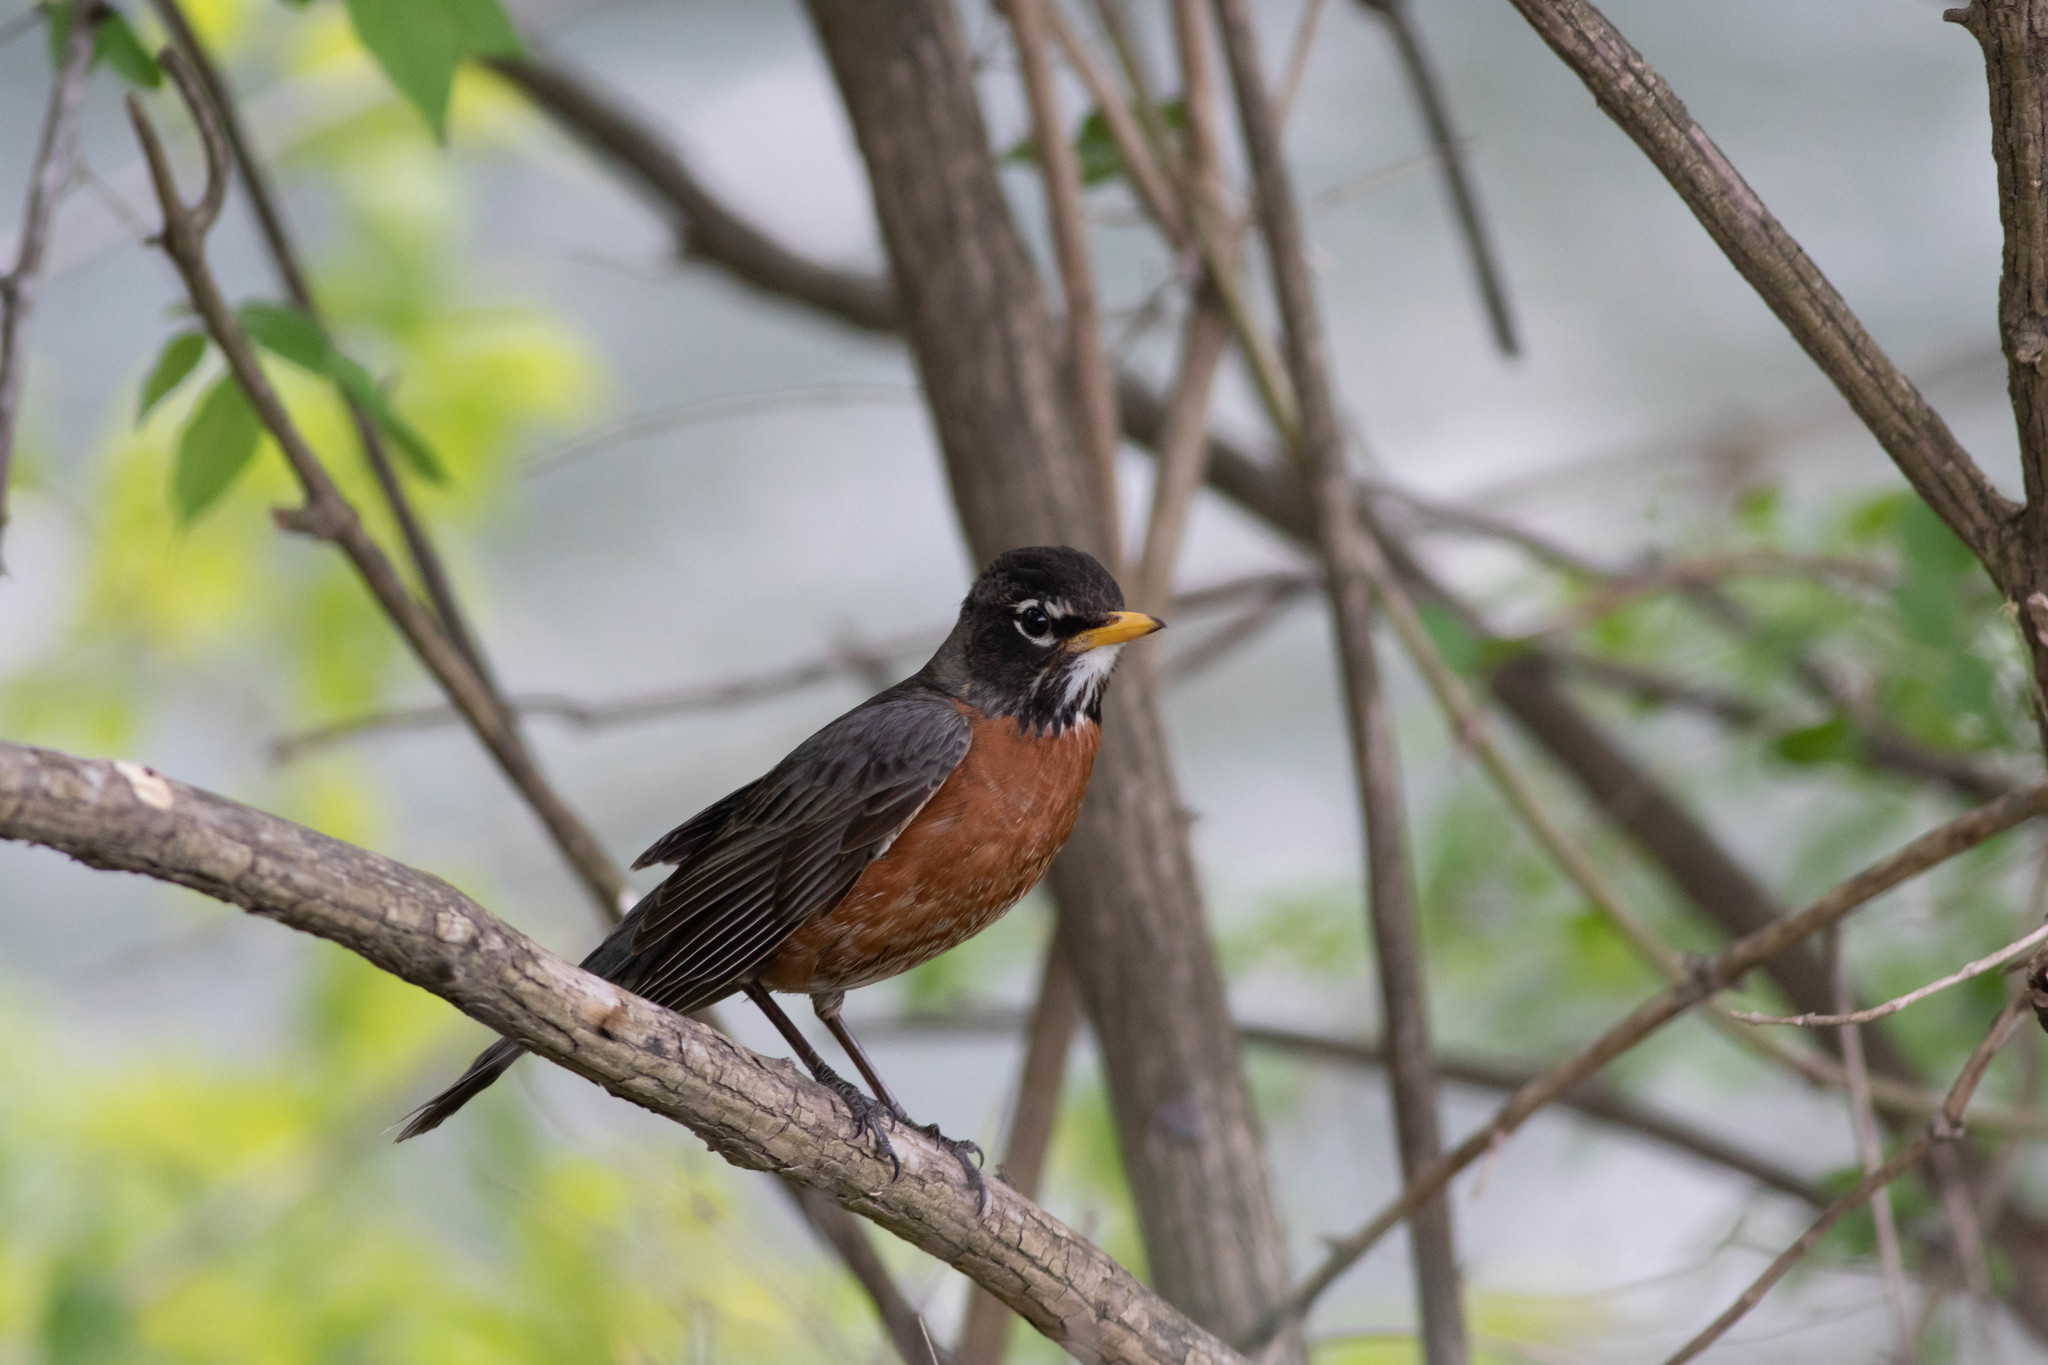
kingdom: Animalia
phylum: Chordata
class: Aves
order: Passeriformes
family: Turdidae
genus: Turdus
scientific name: Turdus migratorius
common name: American robin
